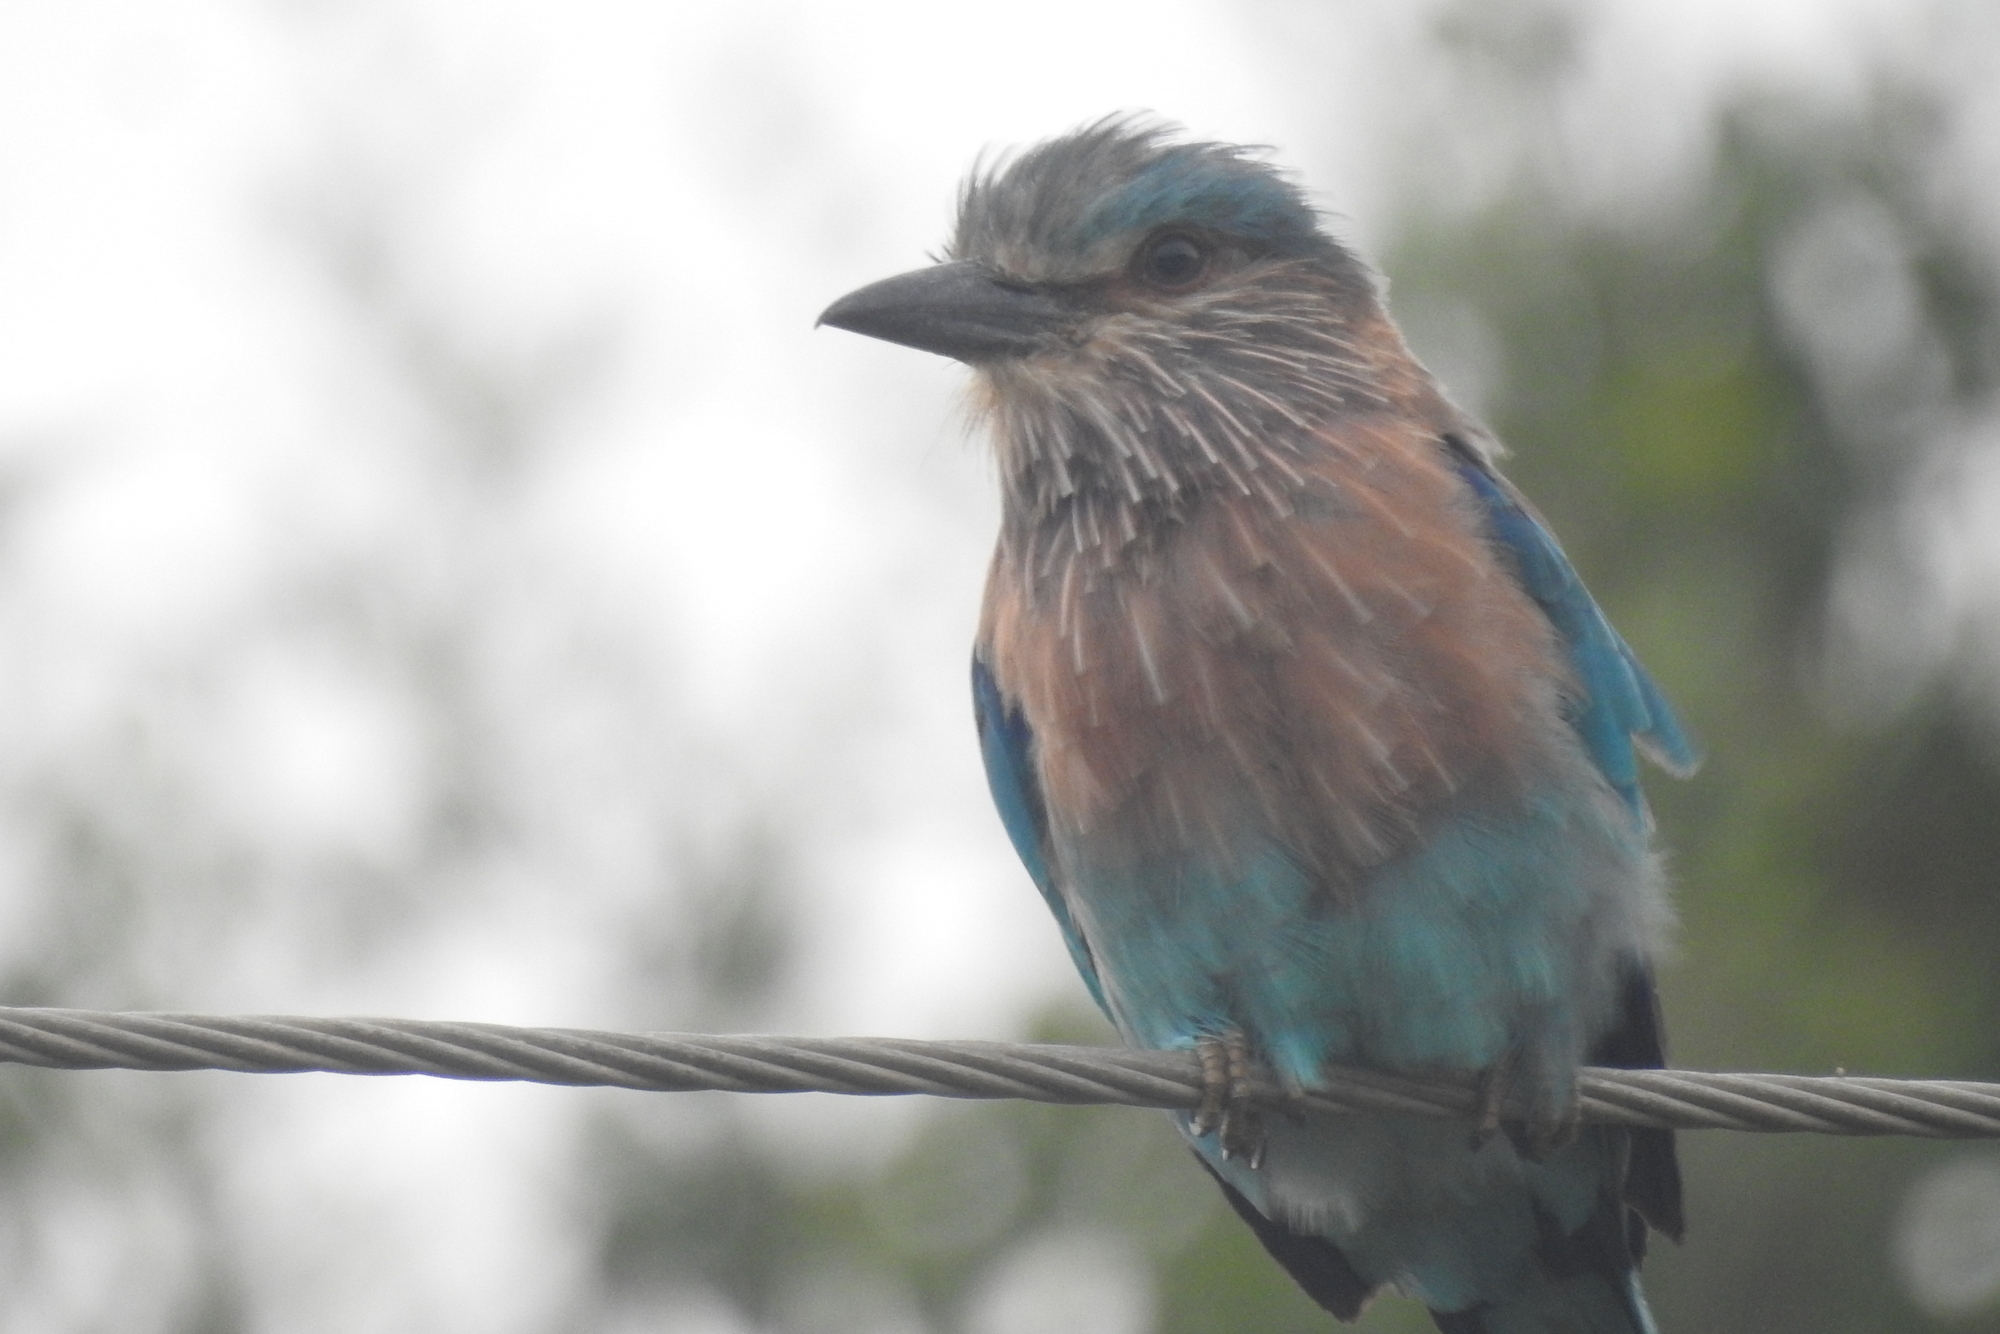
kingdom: Animalia
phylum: Chordata
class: Aves
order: Coraciiformes
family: Coraciidae
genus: Coracias
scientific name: Coracias benghalensis
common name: Indian roller
